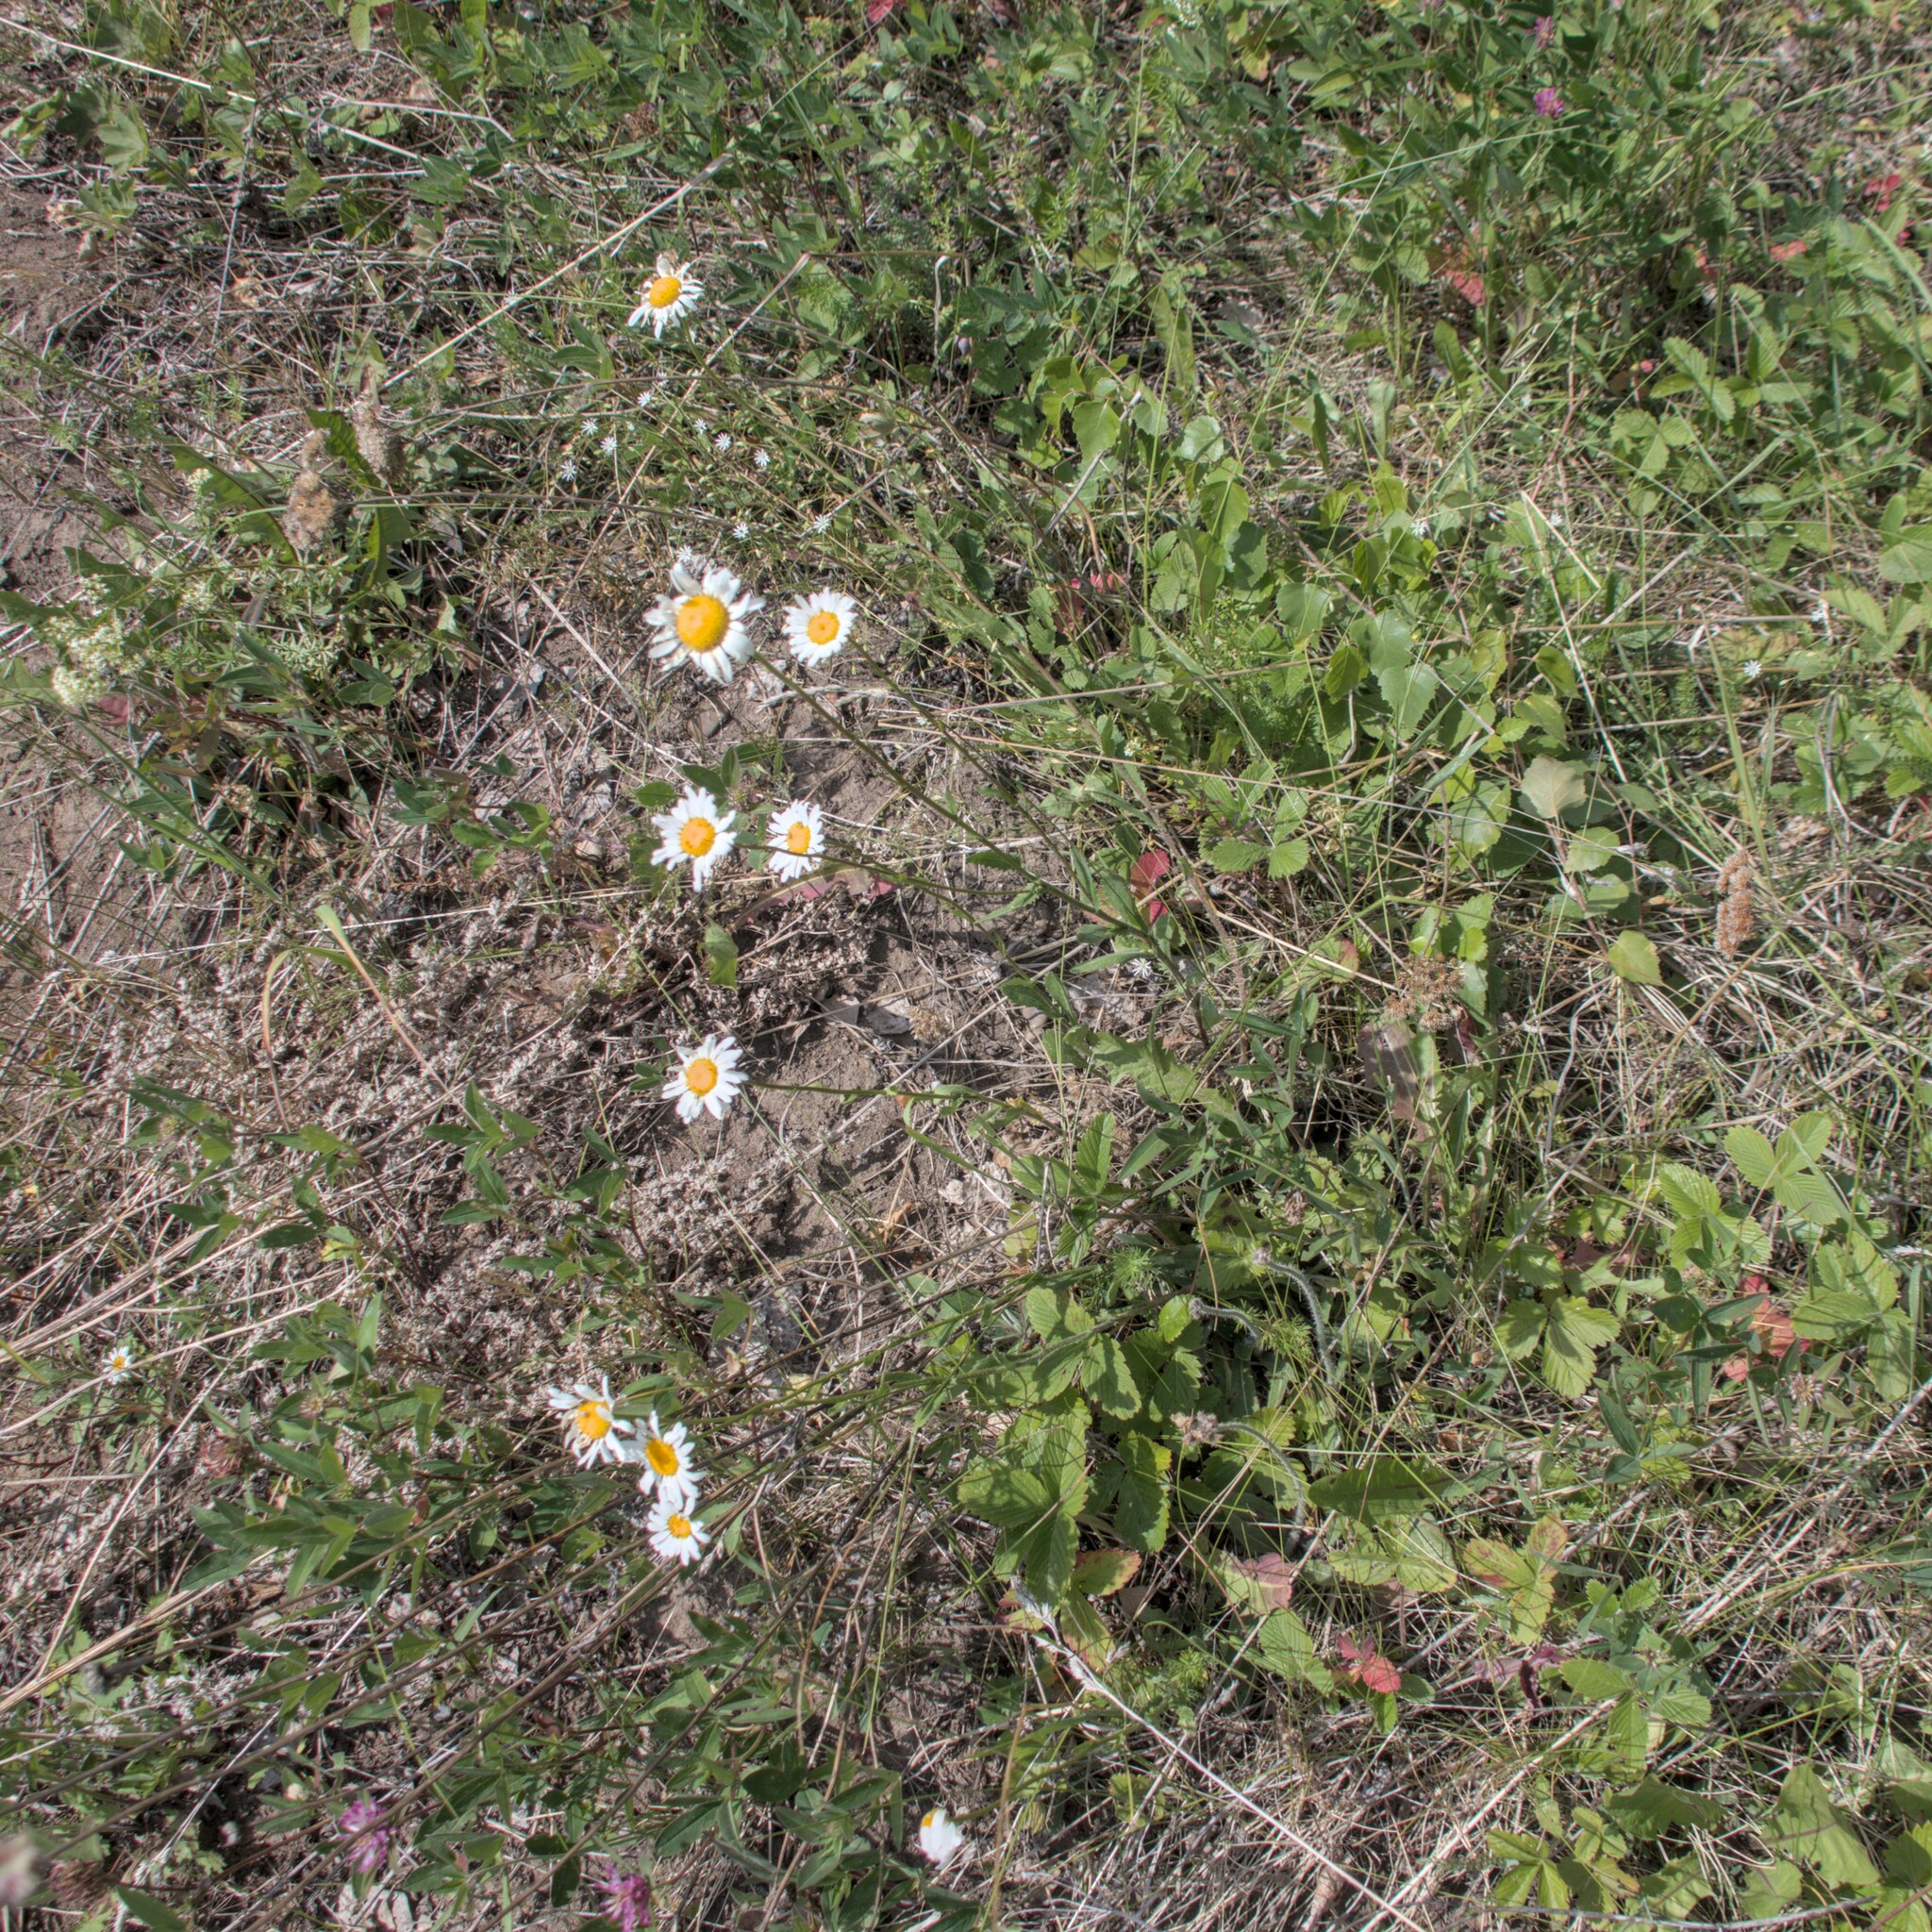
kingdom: Plantae
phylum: Tracheophyta
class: Magnoliopsida
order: Asterales
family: Asteraceae
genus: Leucanthemum
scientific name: Leucanthemum ircutianum
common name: Daisy
